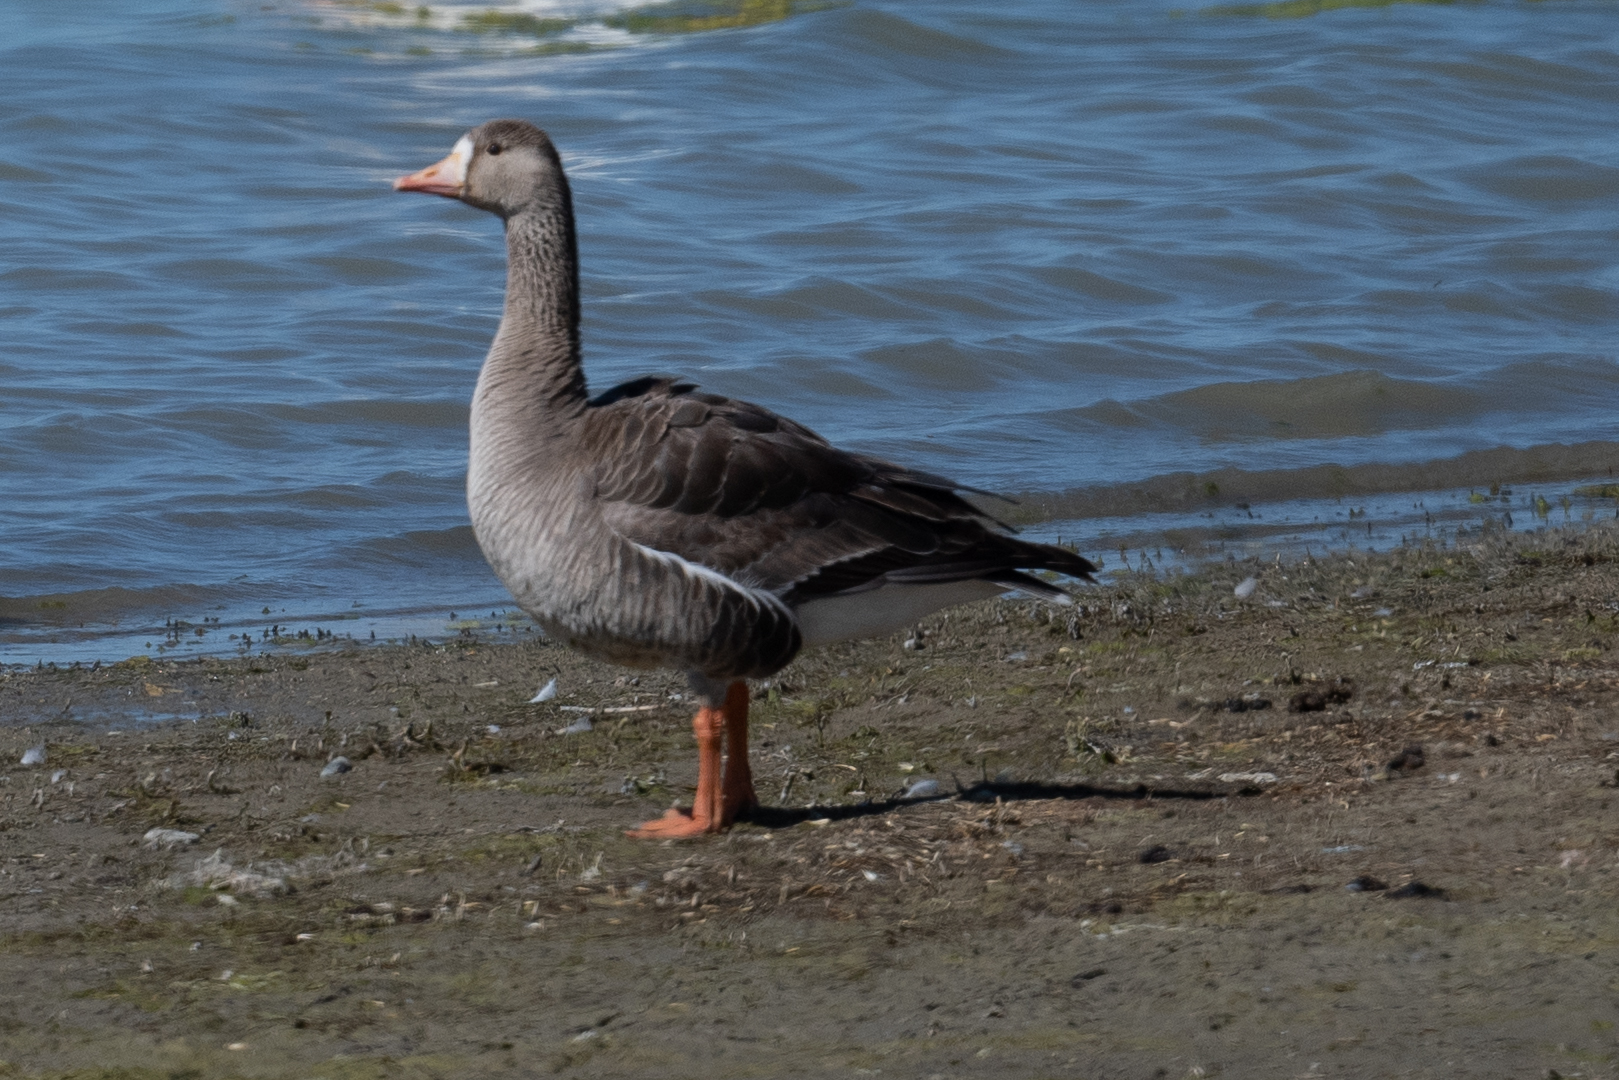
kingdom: Animalia
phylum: Chordata
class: Aves
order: Anseriformes
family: Anatidae
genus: Anser
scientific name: Anser albifrons
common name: Greater white-fronted goose
